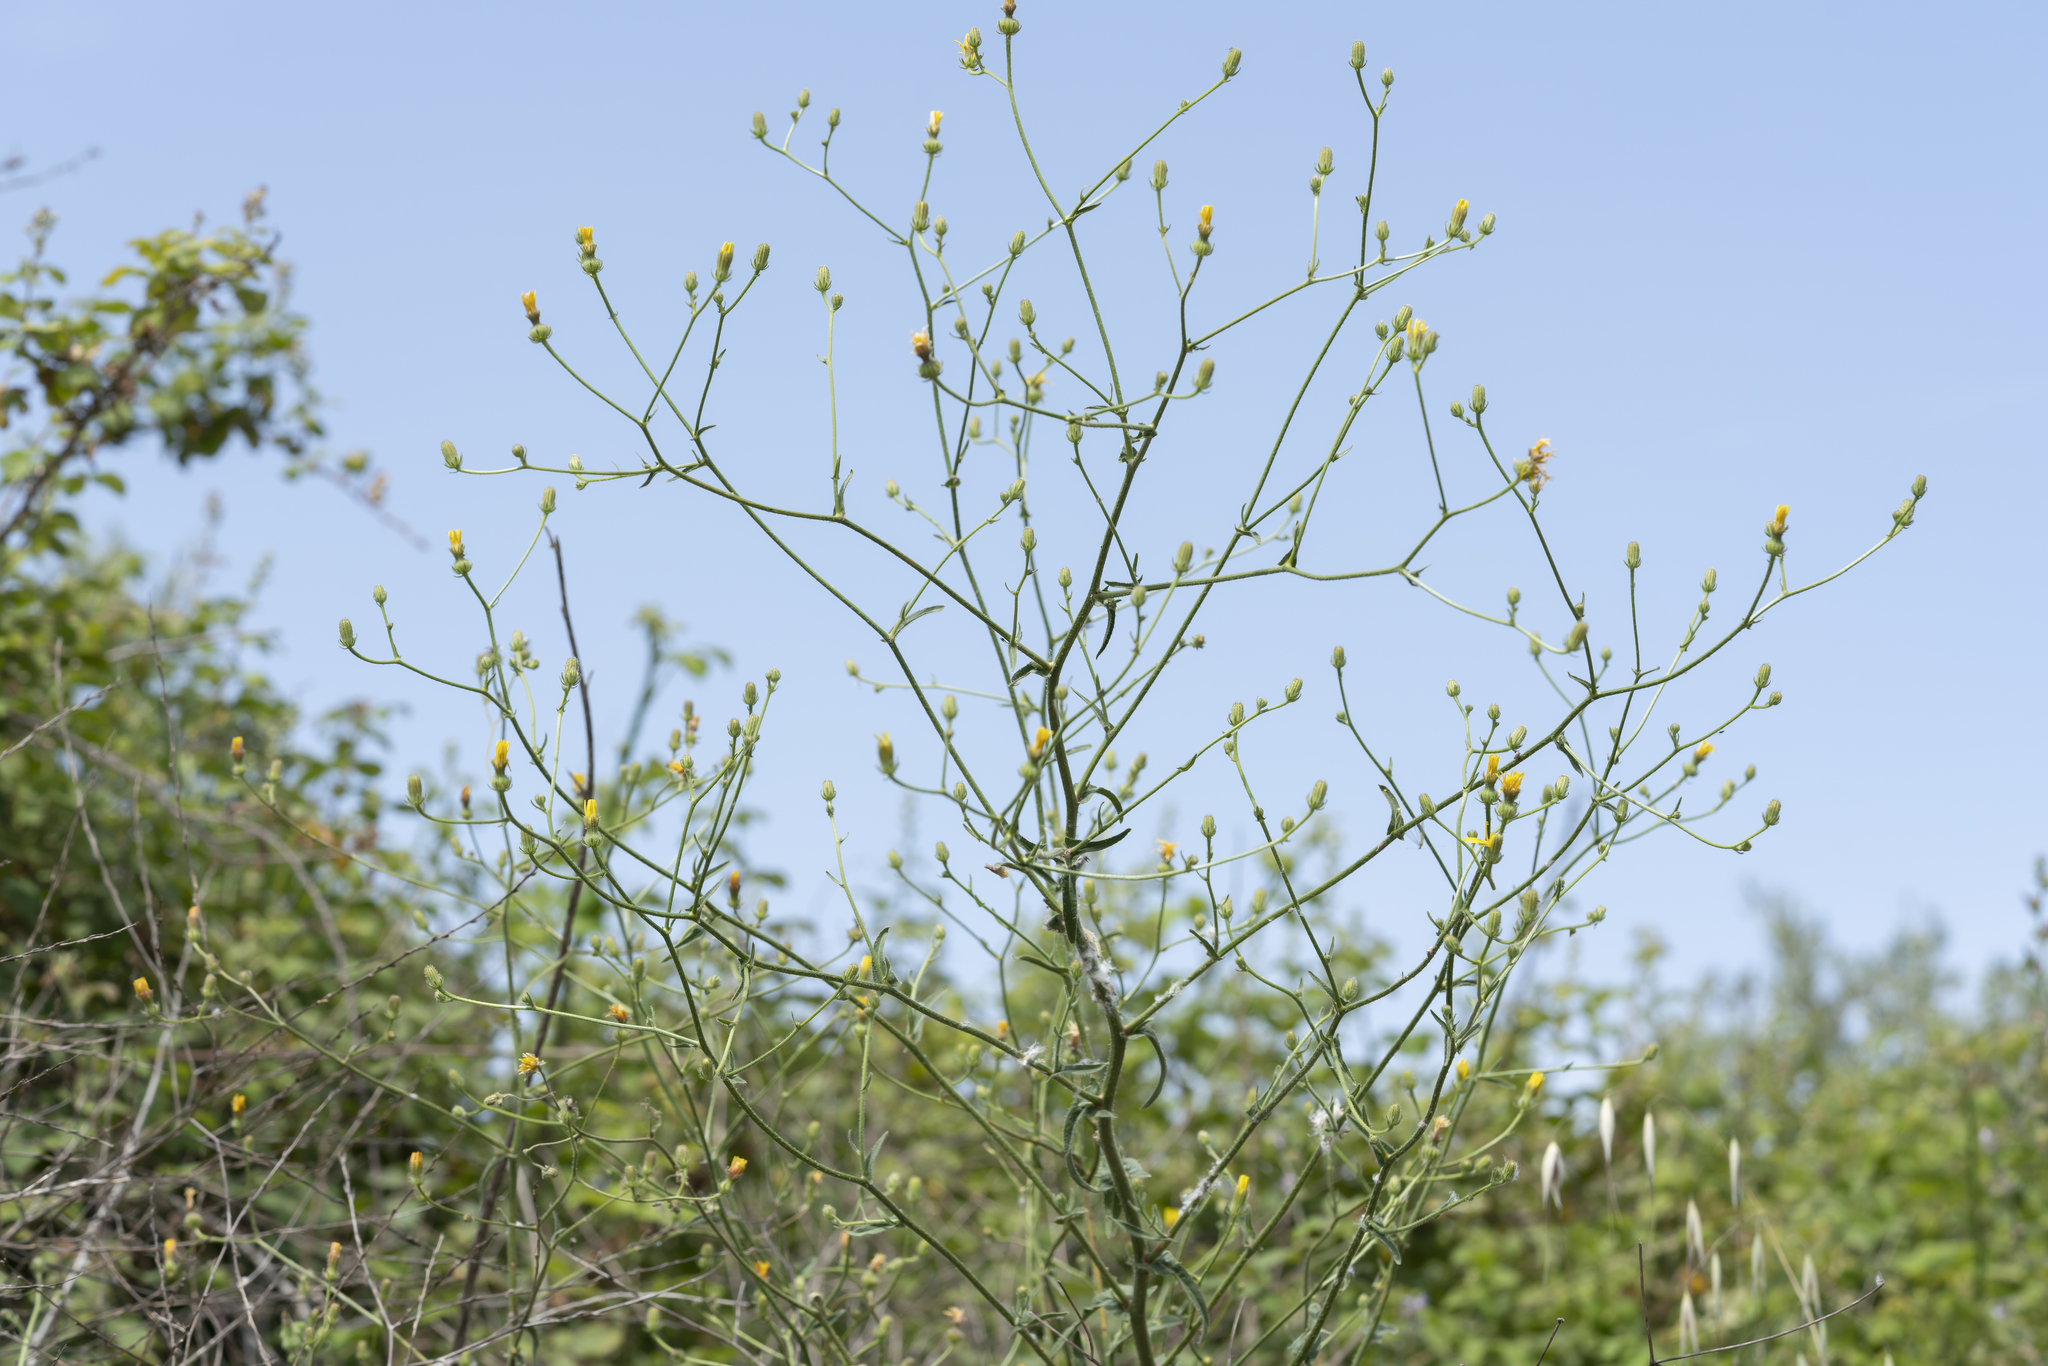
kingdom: Plantae
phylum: Tracheophyta
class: Magnoliopsida
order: Asterales
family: Asteraceae
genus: Picris
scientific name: Picris rhagadioloides
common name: Oxtongue
